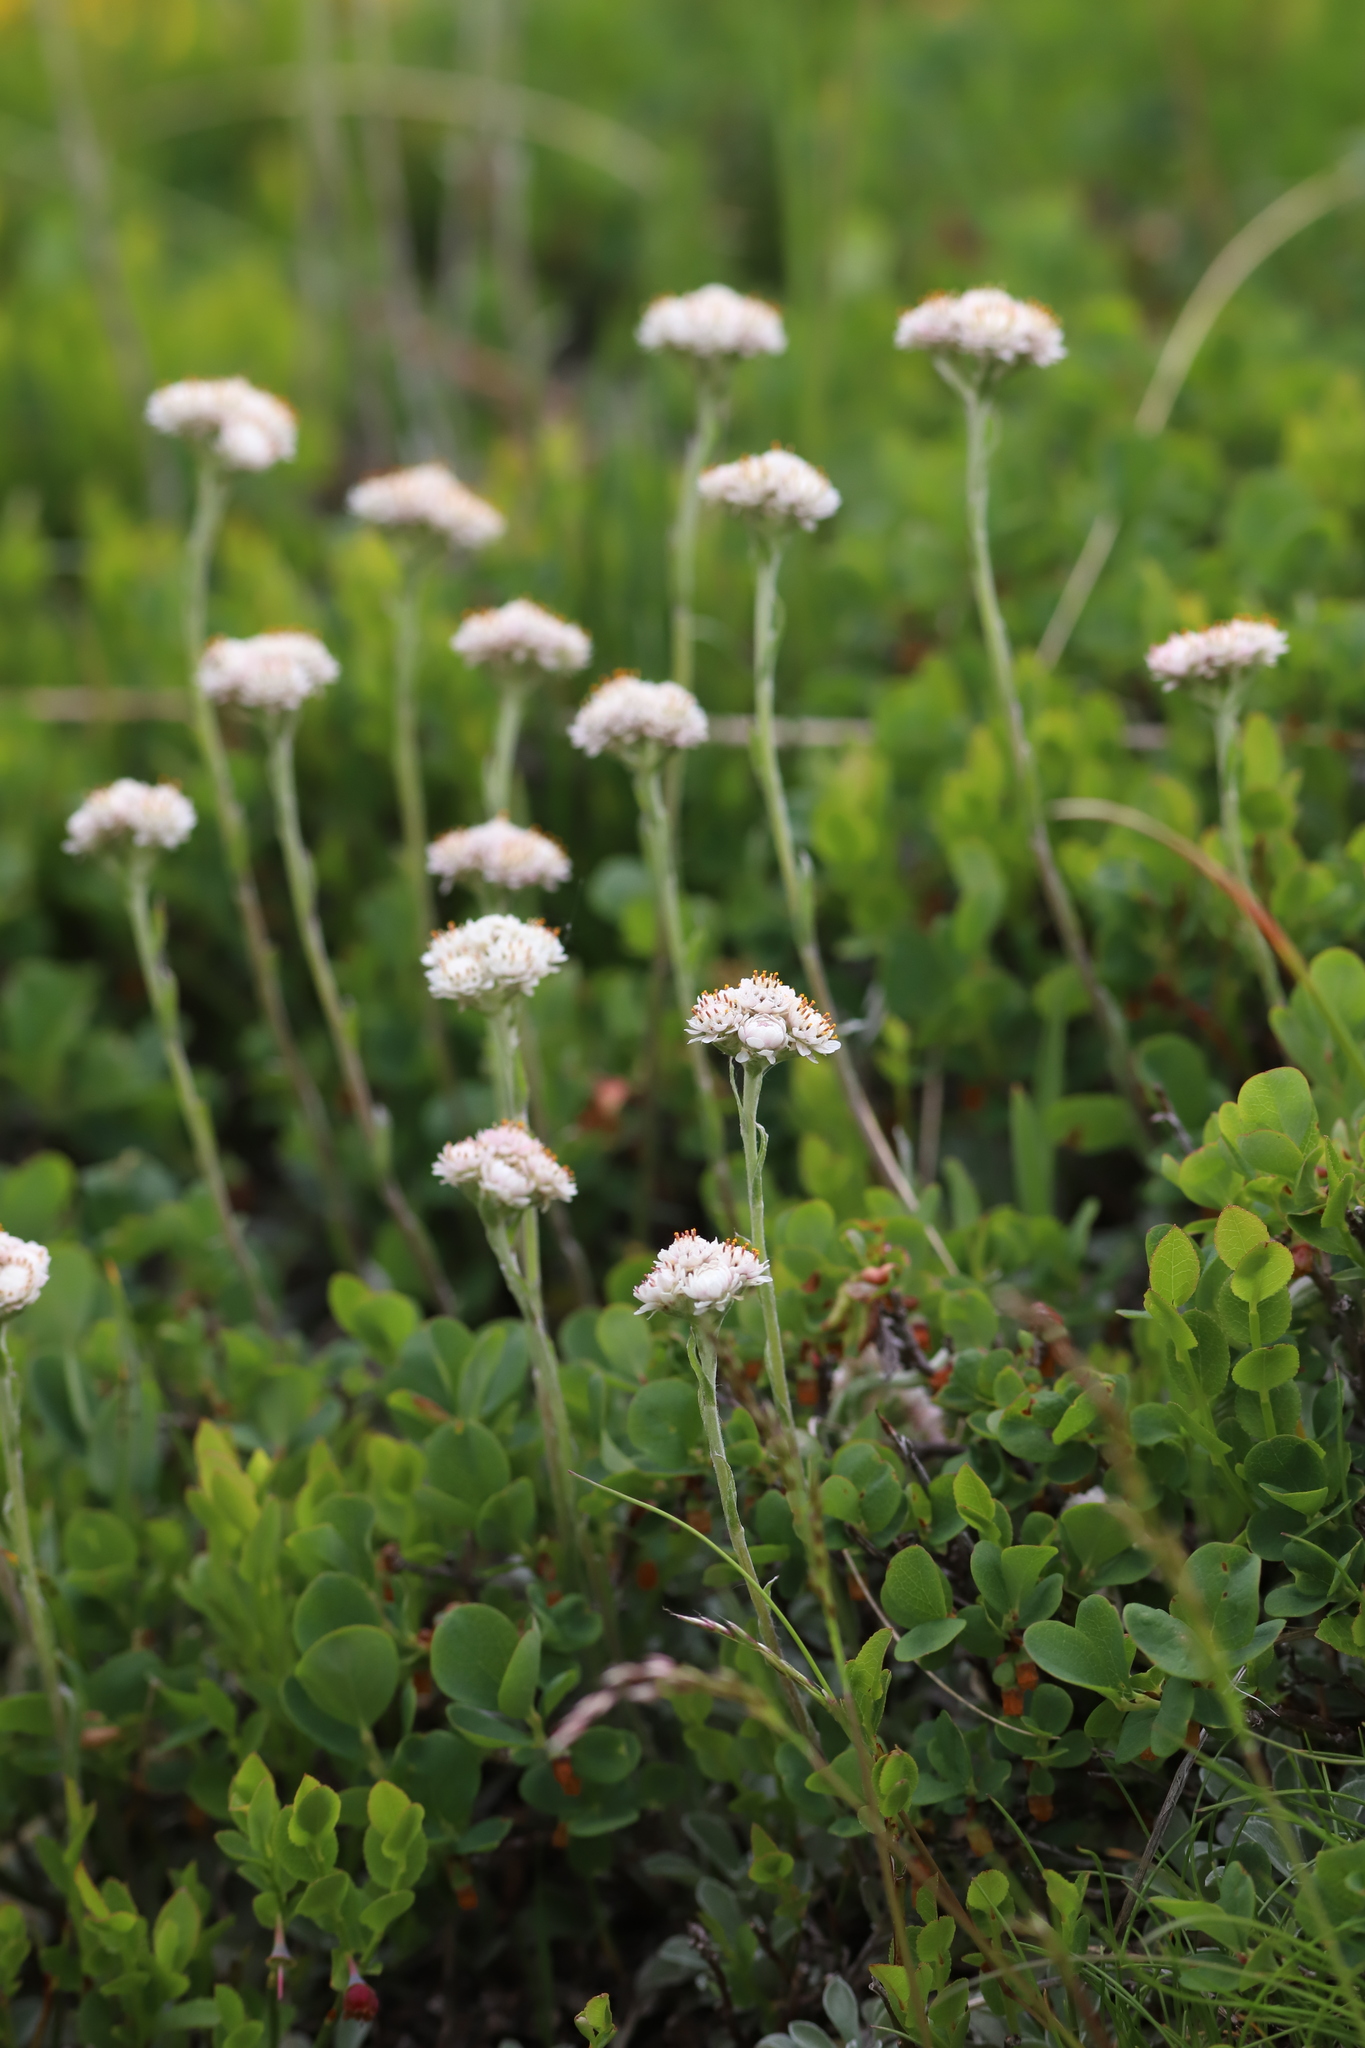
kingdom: Plantae
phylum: Tracheophyta
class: Magnoliopsida
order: Asterales
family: Asteraceae
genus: Antennaria
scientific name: Antennaria dioica
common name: Mountain everlasting
